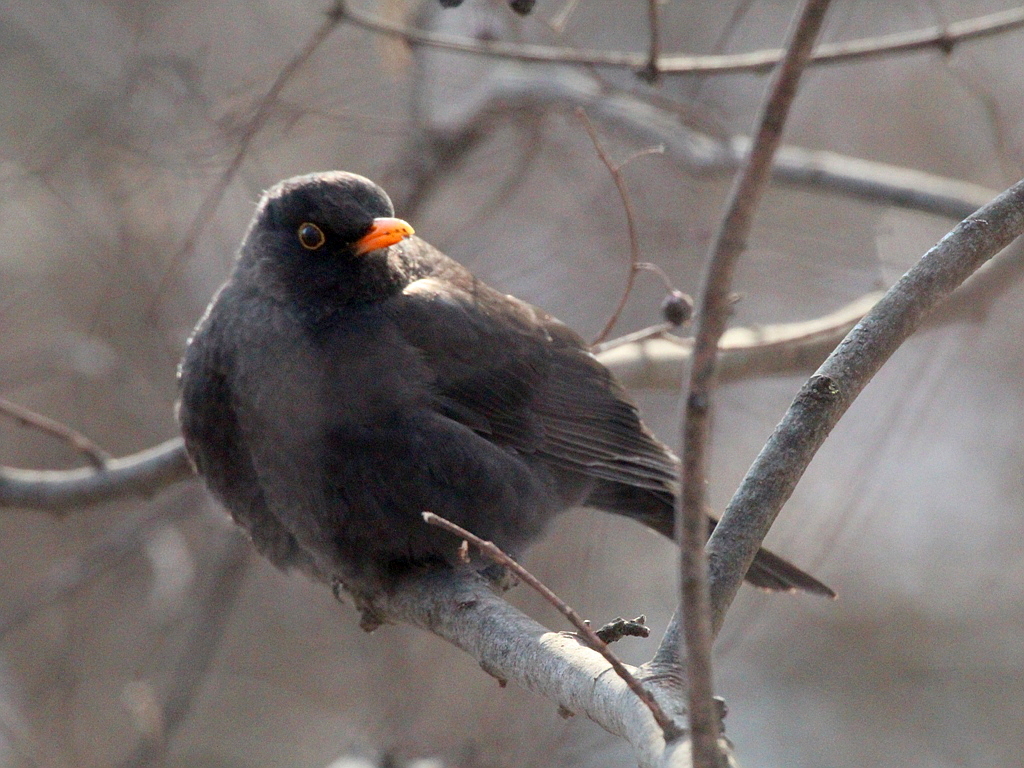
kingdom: Animalia
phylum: Chordata
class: Aves
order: Passeriformes
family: Turdidae
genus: Turdus
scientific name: Turdus merula
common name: Common blackbird
